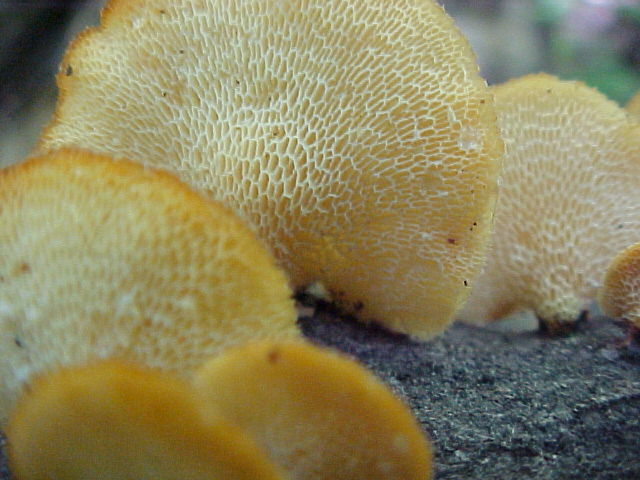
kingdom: Fungi
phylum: Basidiomycota
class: Agaricomycetes
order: Polyporales
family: Polyporaceae
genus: Neofavolus
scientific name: Neofavolus alveolaris
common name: Hexagonal-pored polypore
